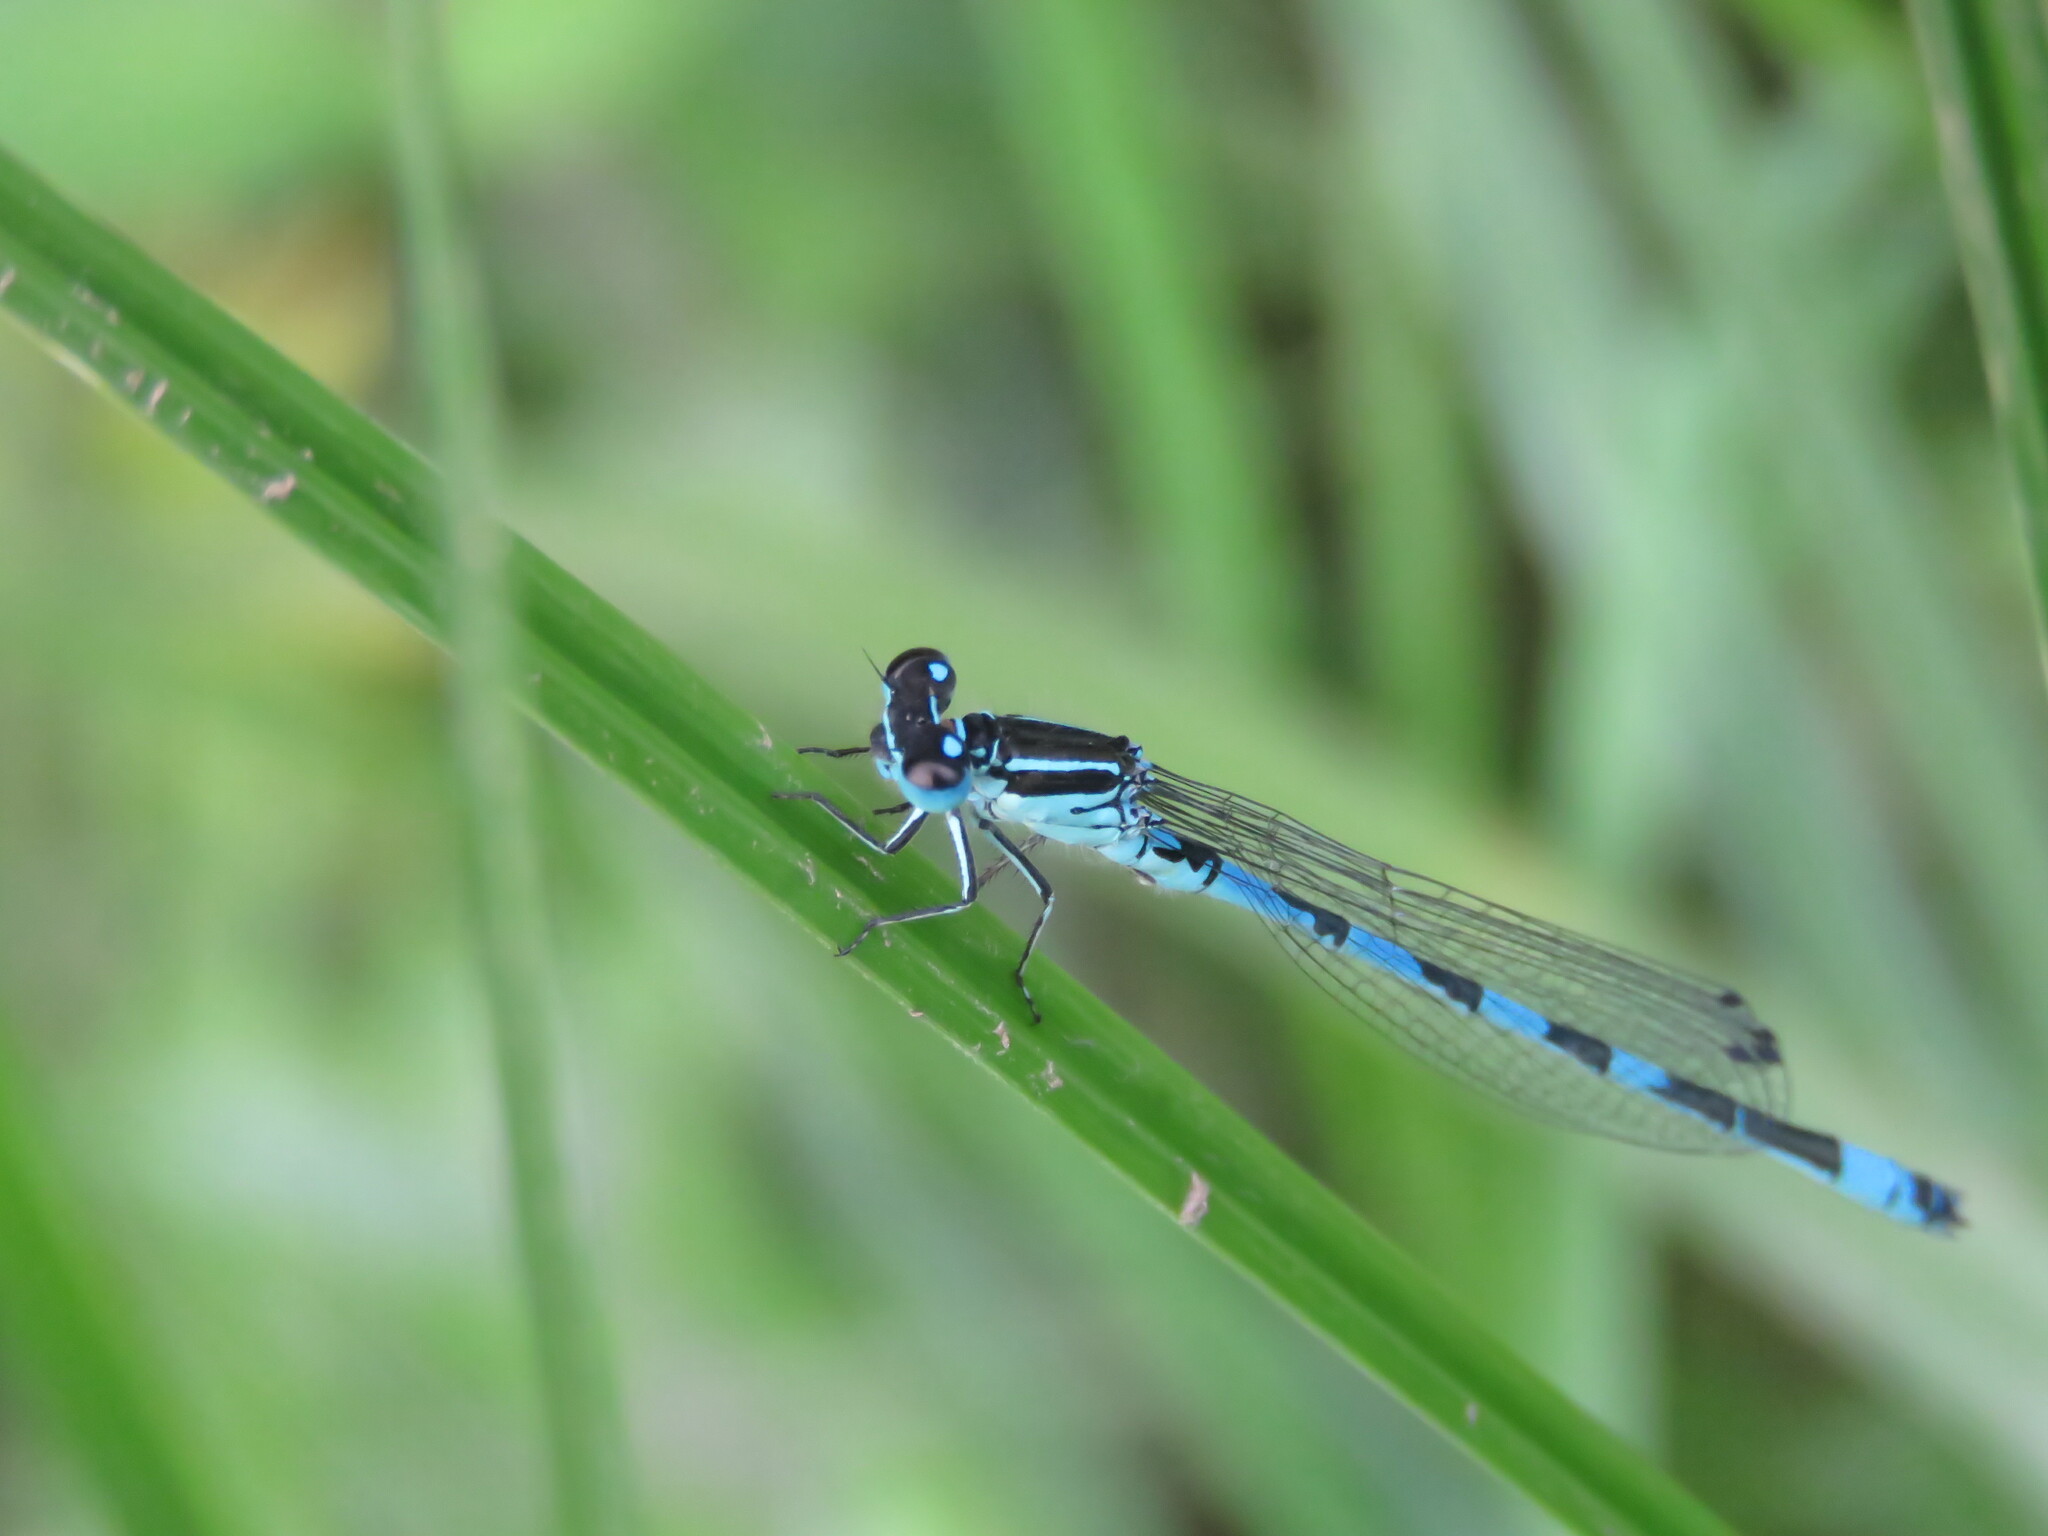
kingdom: Animalia
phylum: Arthropoda
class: Insecta
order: Odonata
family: Coenagrionidae
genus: Coenagrion
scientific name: Coenagrion mercuriale
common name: Southern damselfly
